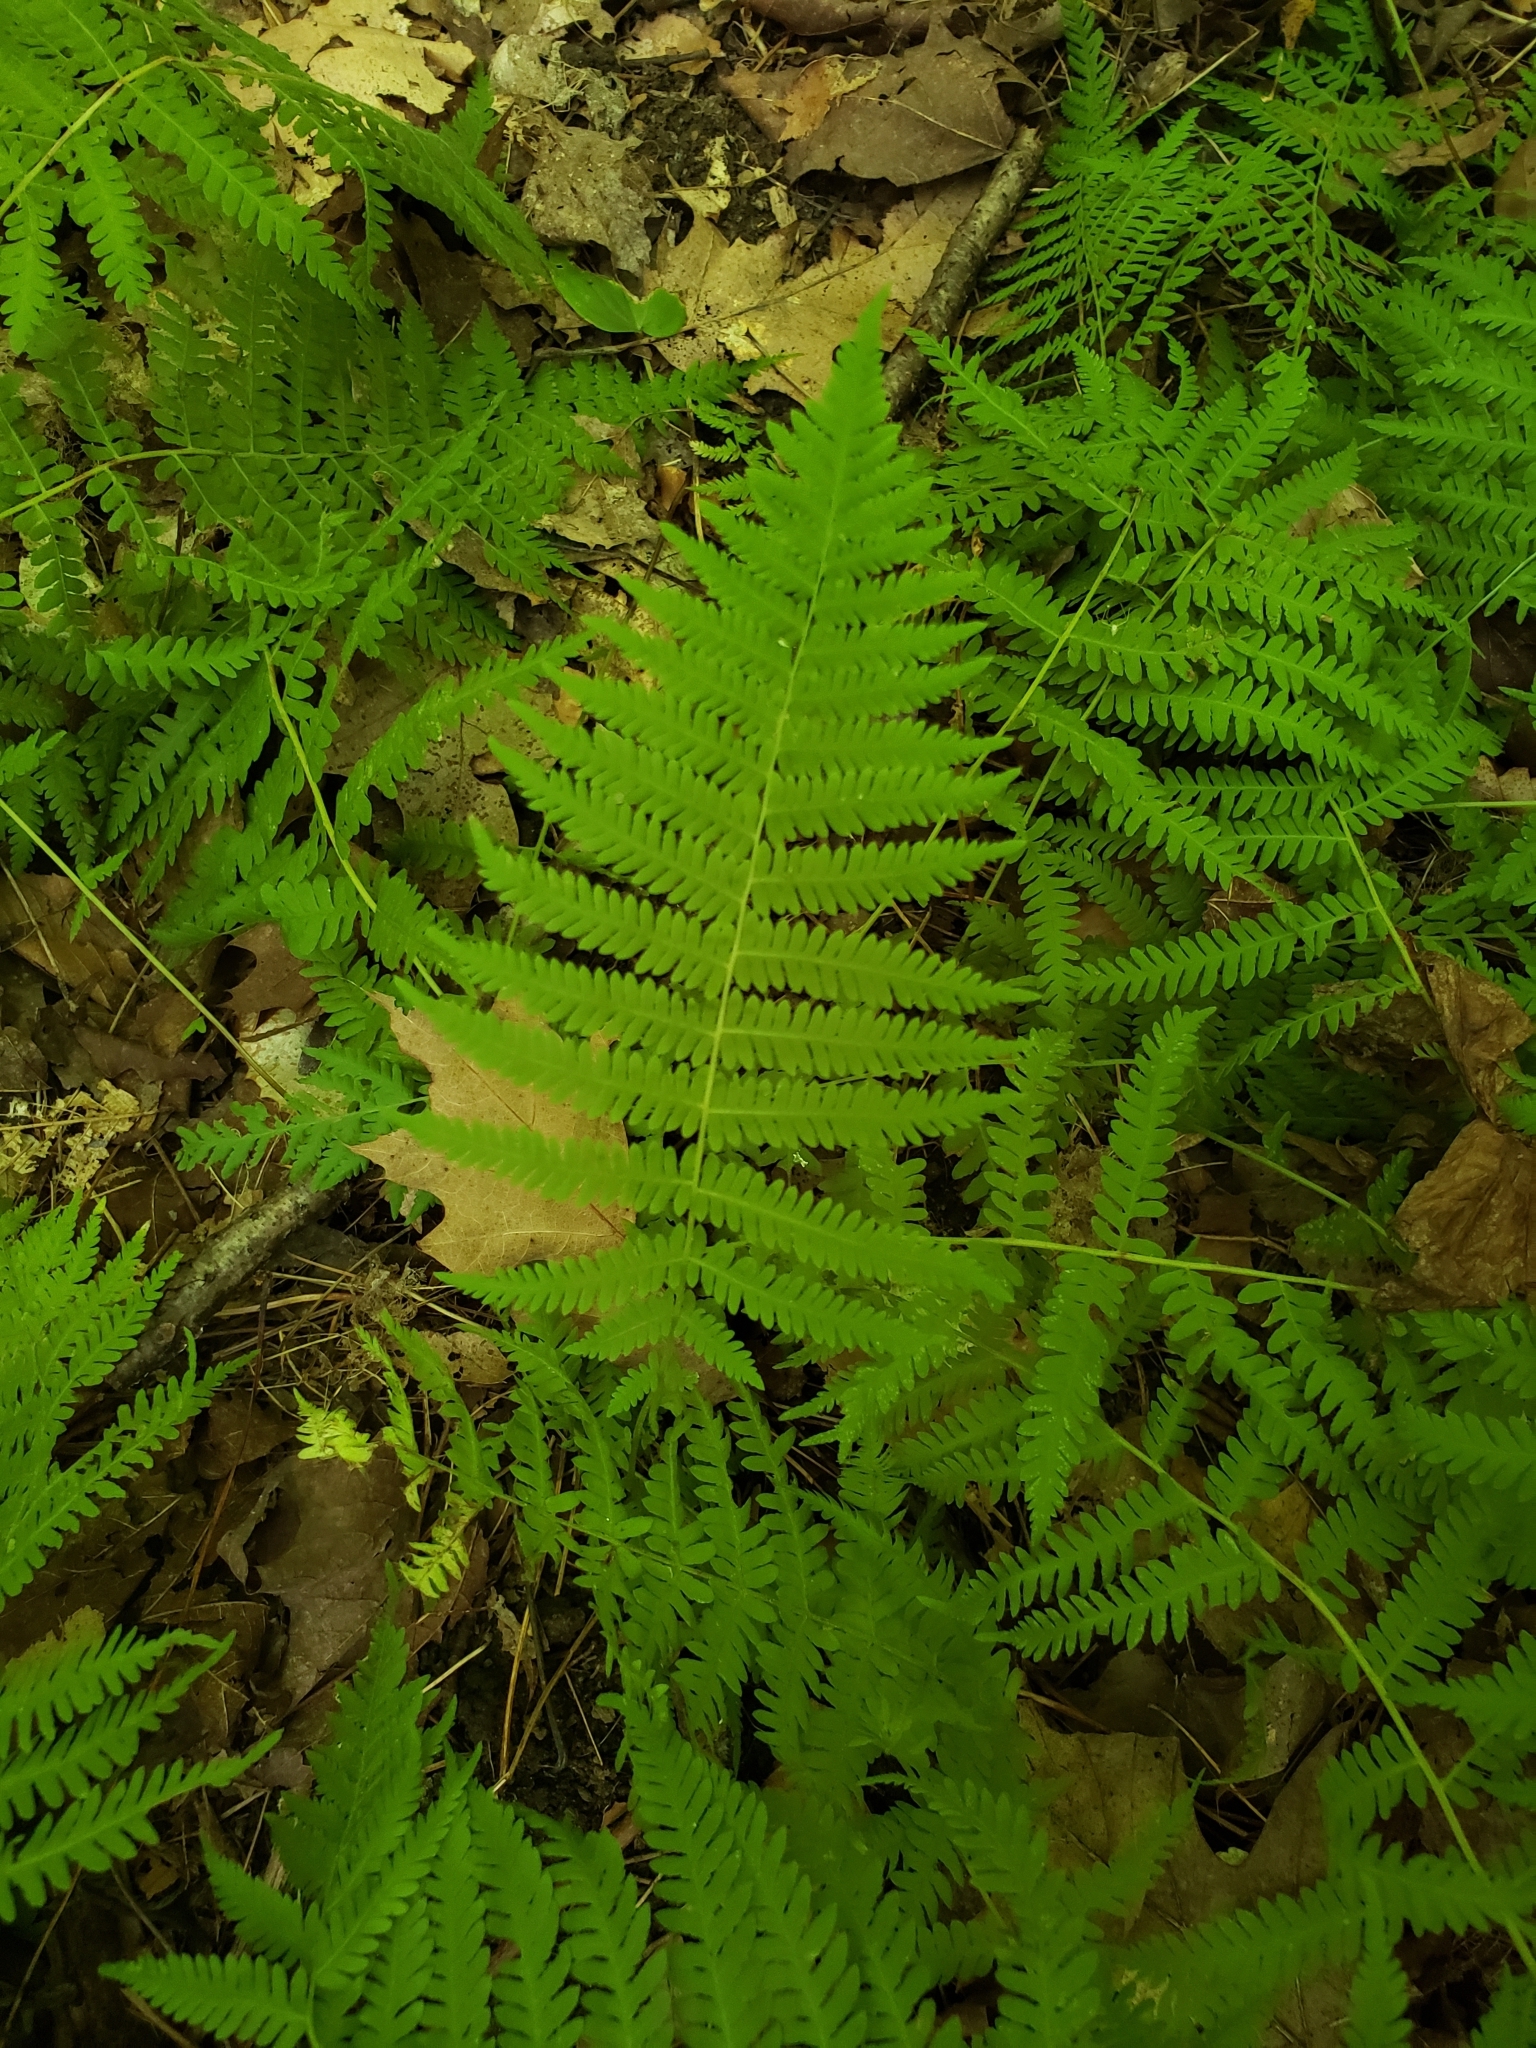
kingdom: Plantae
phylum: Tracheophyta
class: Polypodiopsida
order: Polypodiales
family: Thelypteridaceae
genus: Amauropelta
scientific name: Amauropelta noveboracensis
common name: New york fern
